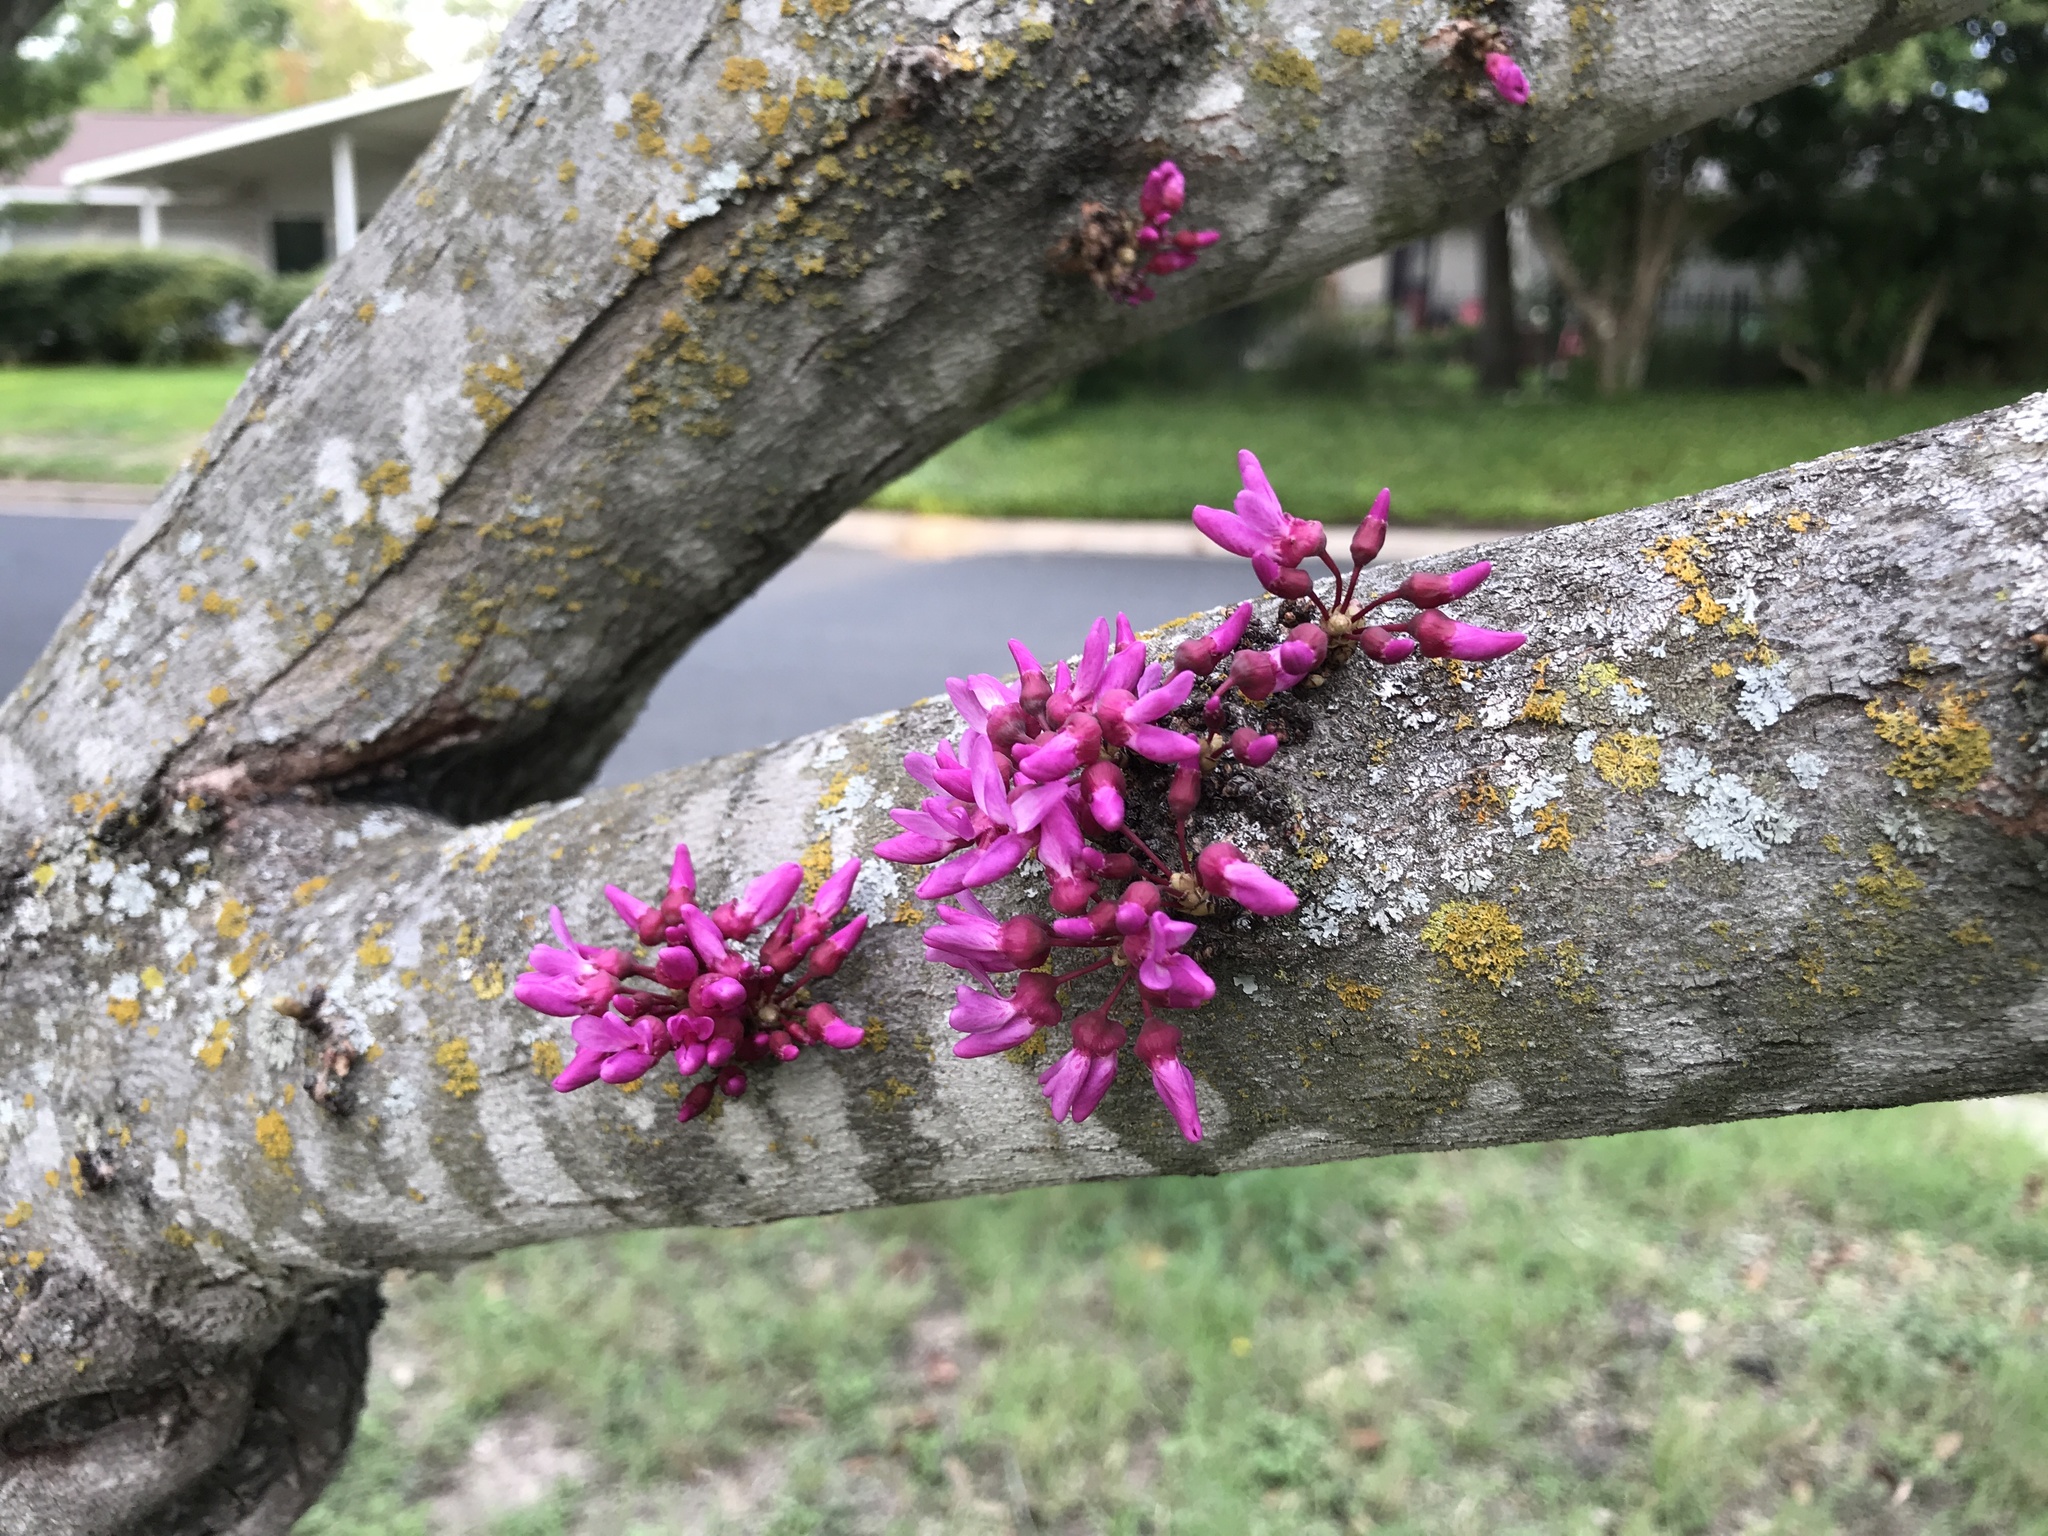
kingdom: Plantae
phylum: Tracheophyta
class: Magnoliopsida
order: Fabales
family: Fabaceae
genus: Cercis
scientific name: Cercis canadensis
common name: Eastern redbud
